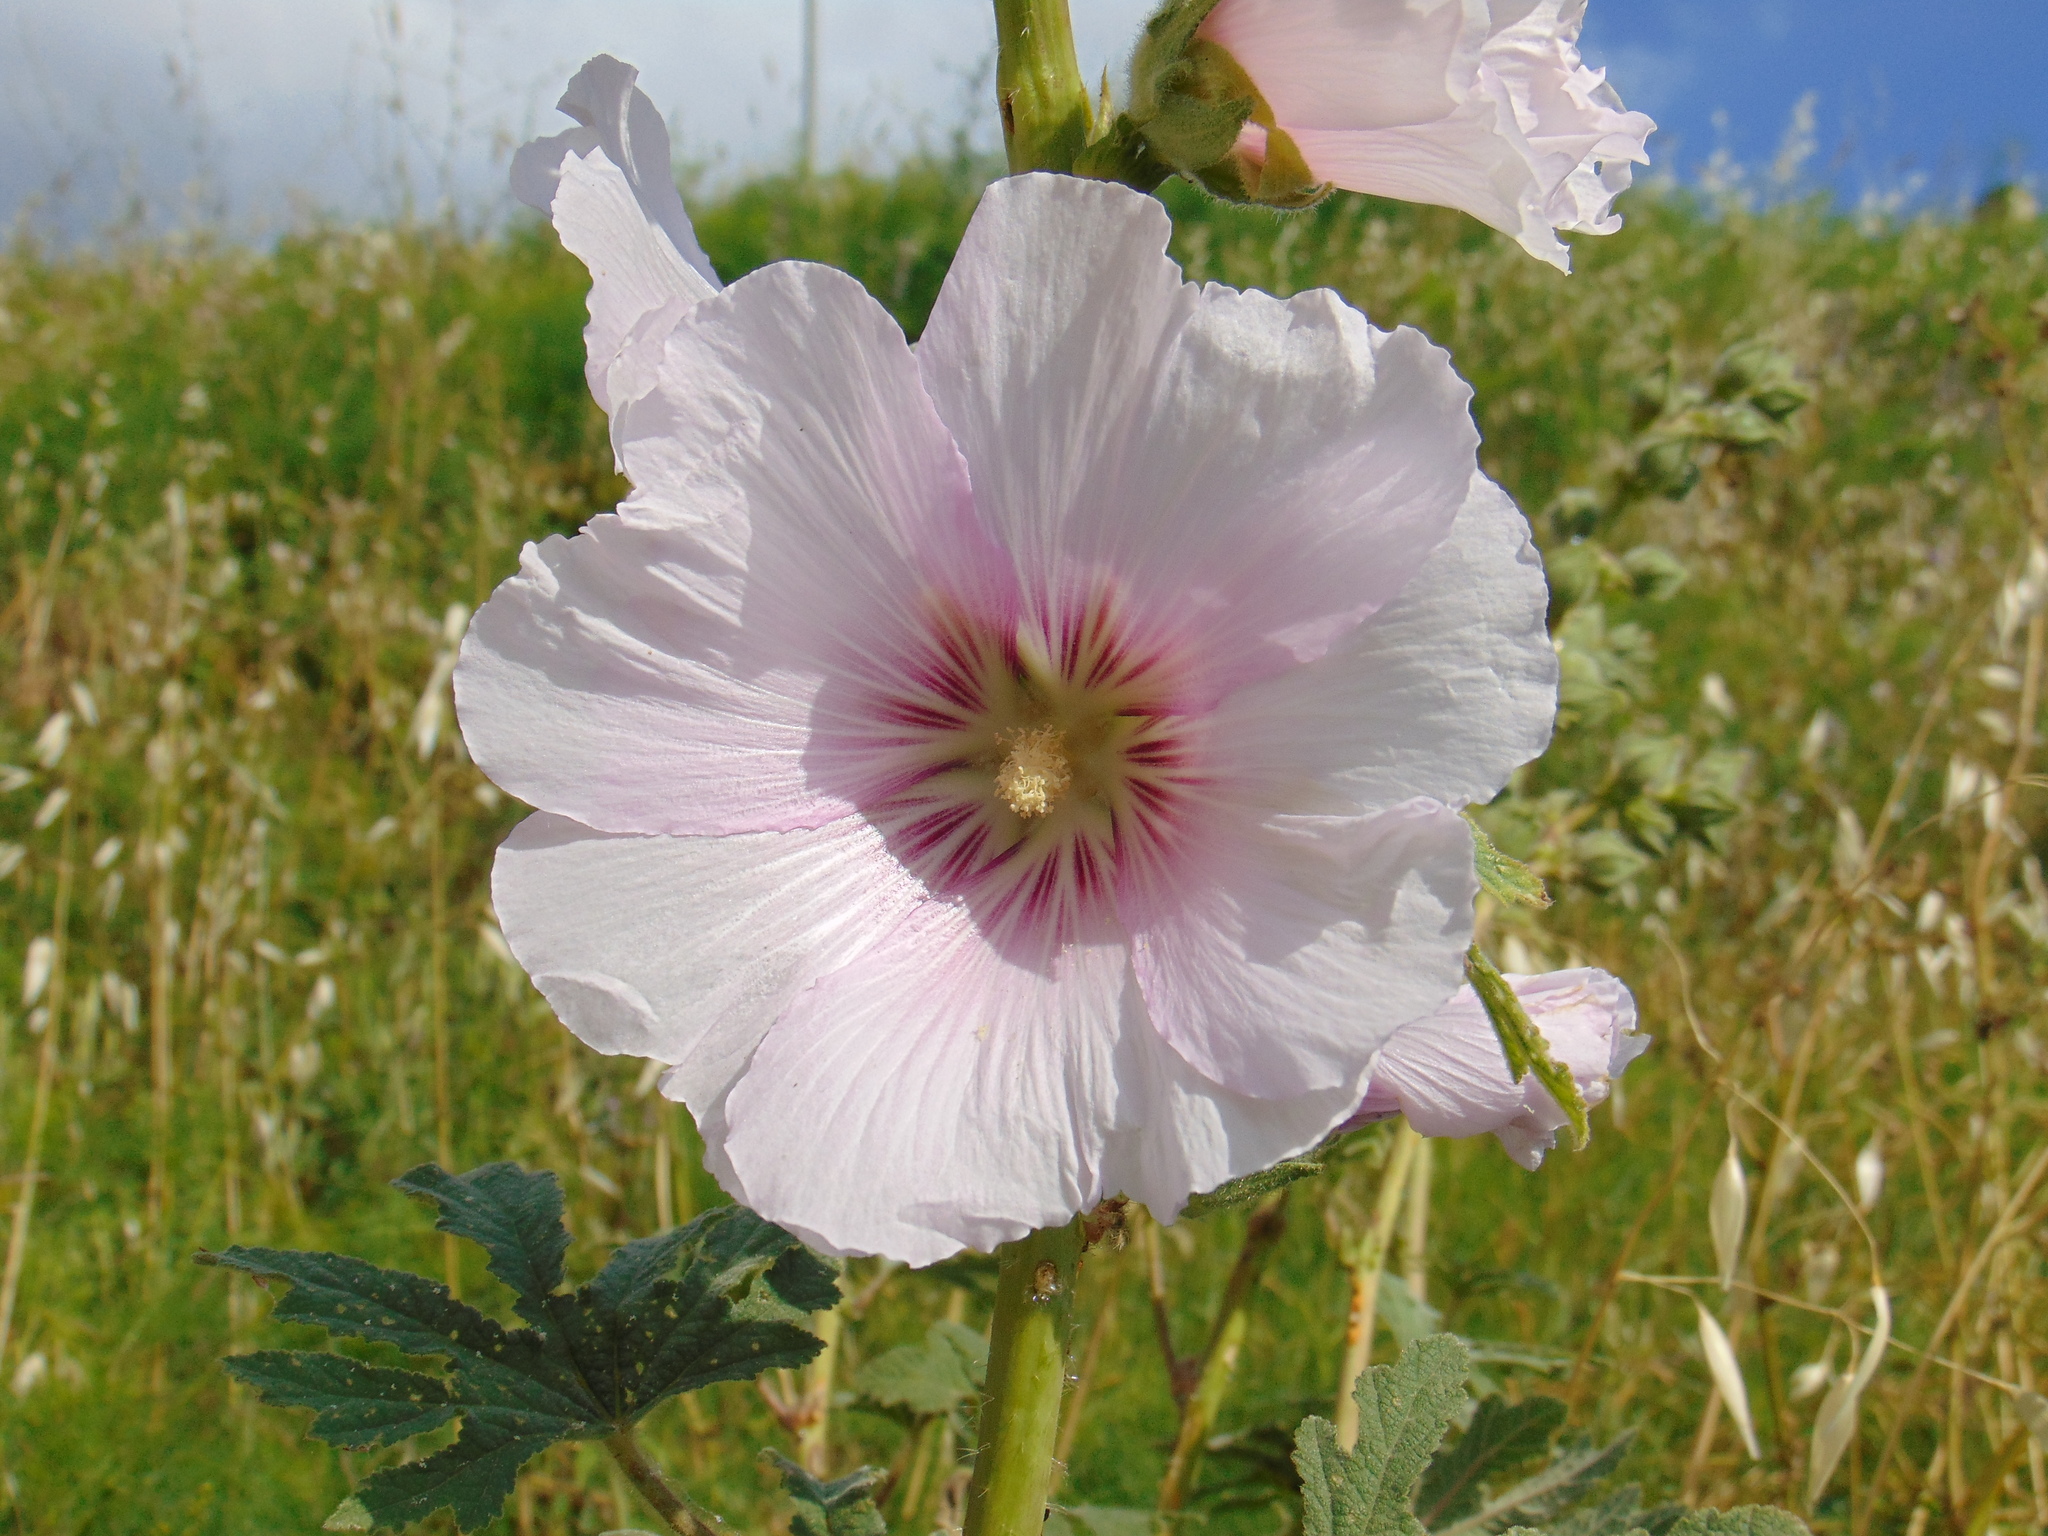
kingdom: Plantae
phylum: Tracheophyta
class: Magnoliopsida
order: Malvales
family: Malvaceae
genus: Alcea
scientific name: Alcea rosea
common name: Hollyhock
